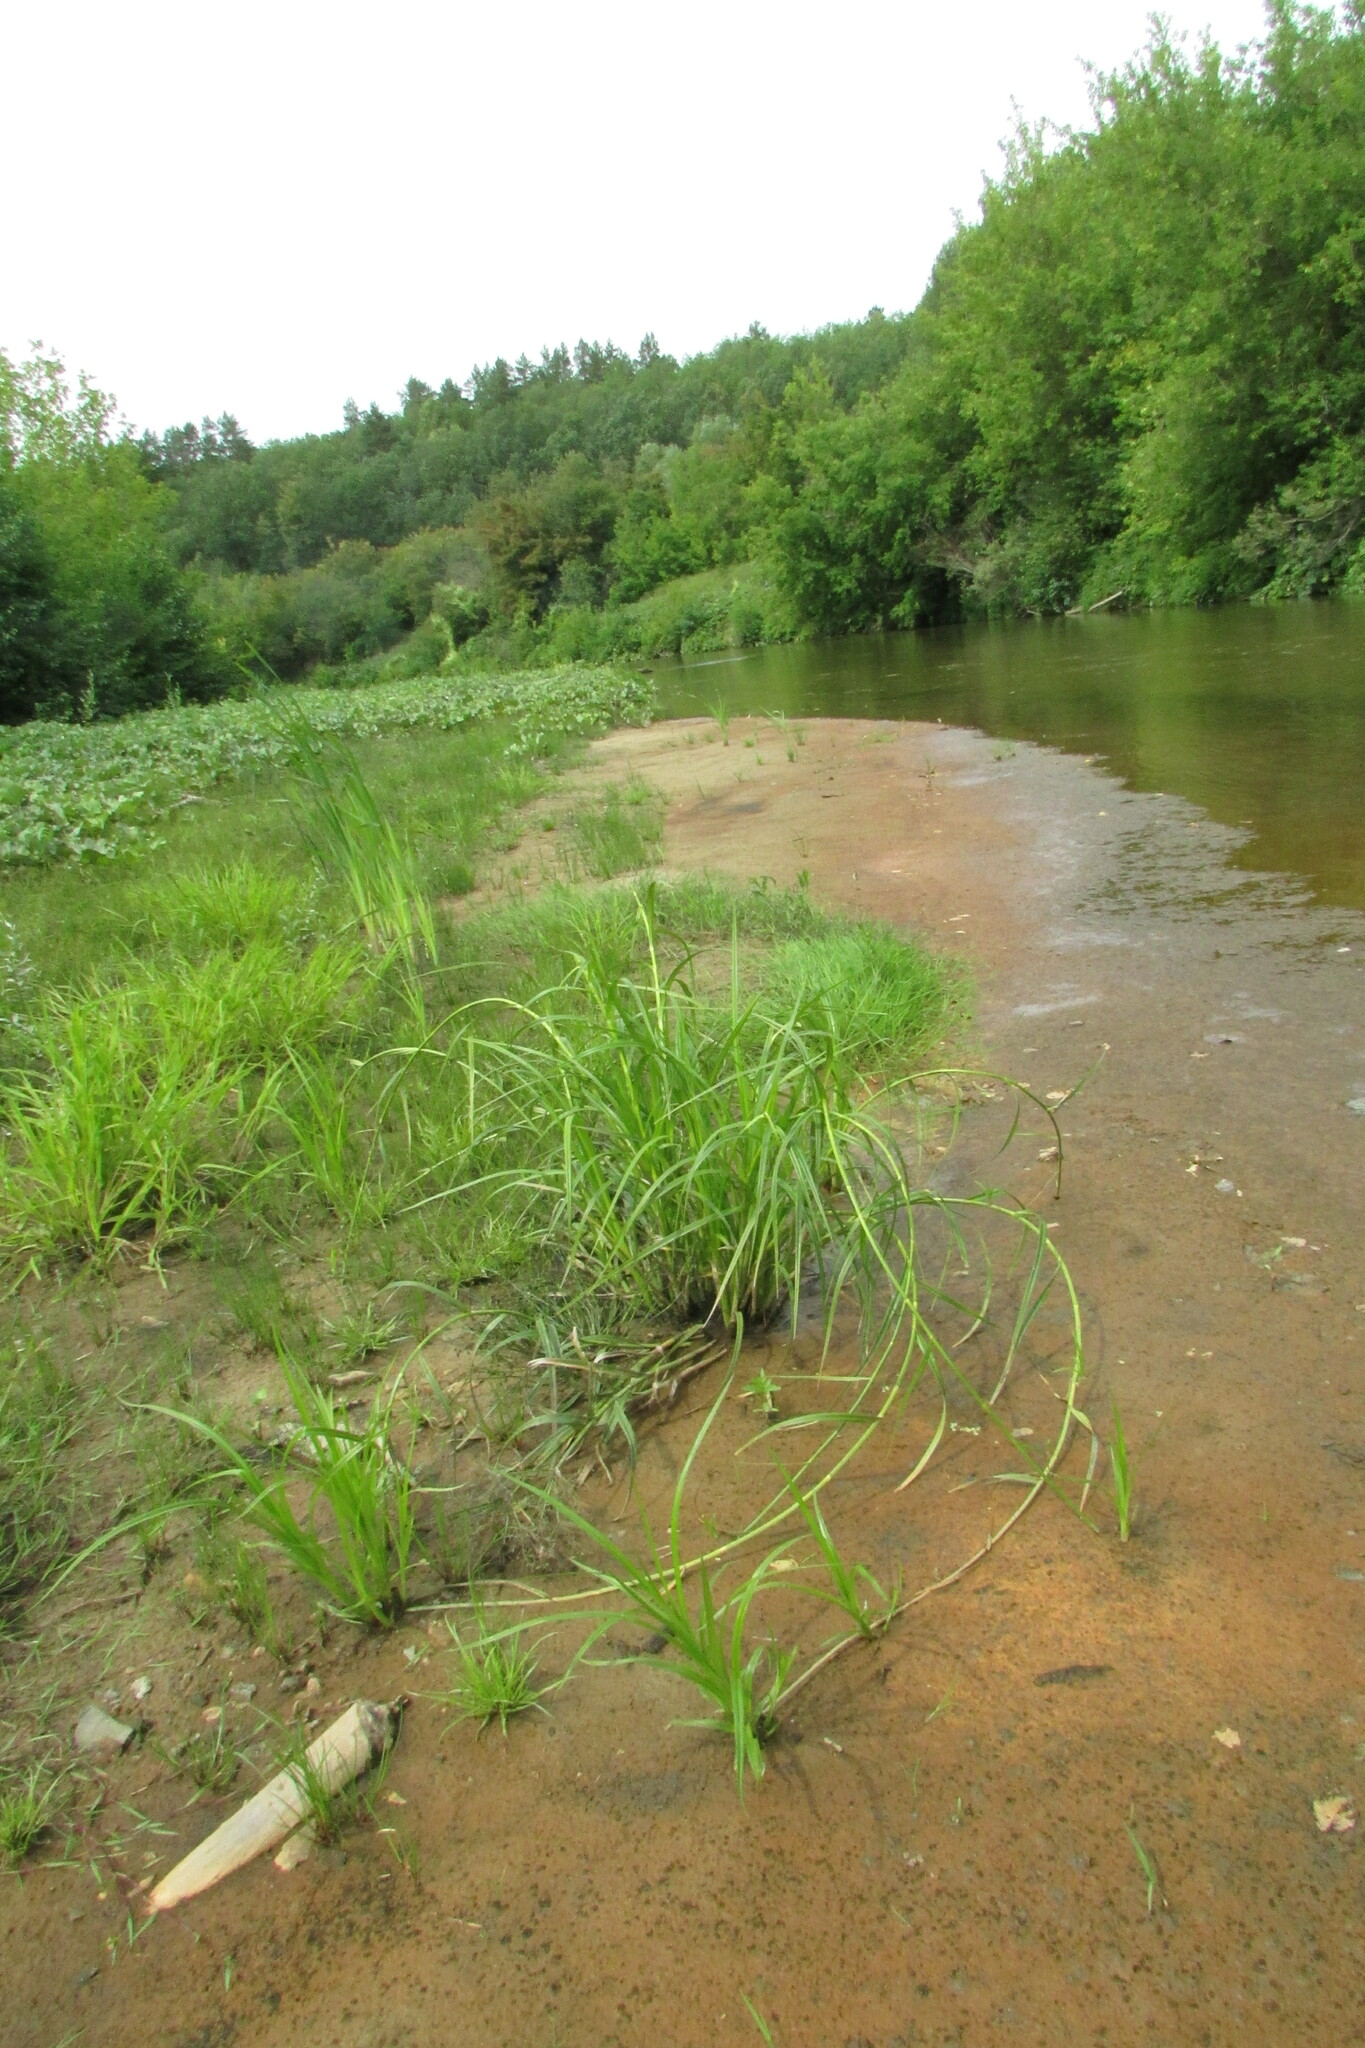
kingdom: Plantae
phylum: Tracheophyta
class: Liliopsida
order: Poales
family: Cyperaceae
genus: Scirpus
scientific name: Scirpus radicans
